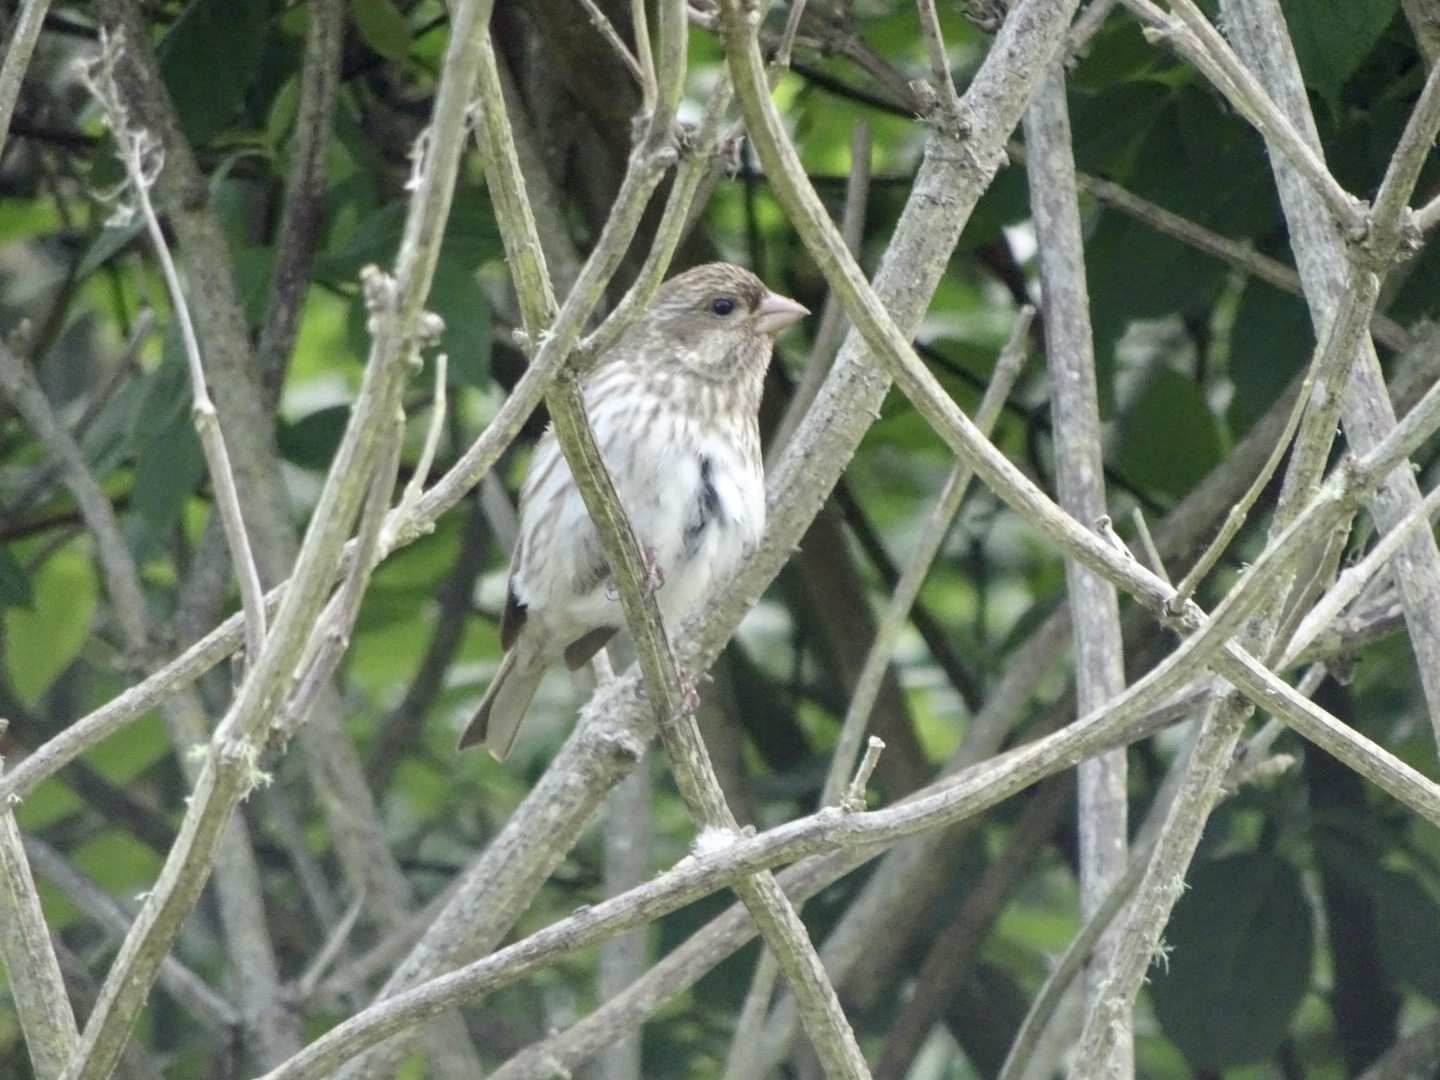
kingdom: Animalia
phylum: Chordata
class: Aves
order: Passeriformes
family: Fringillidae
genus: Haemorhous
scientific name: Haemorhous purpureus
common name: Purple finch
